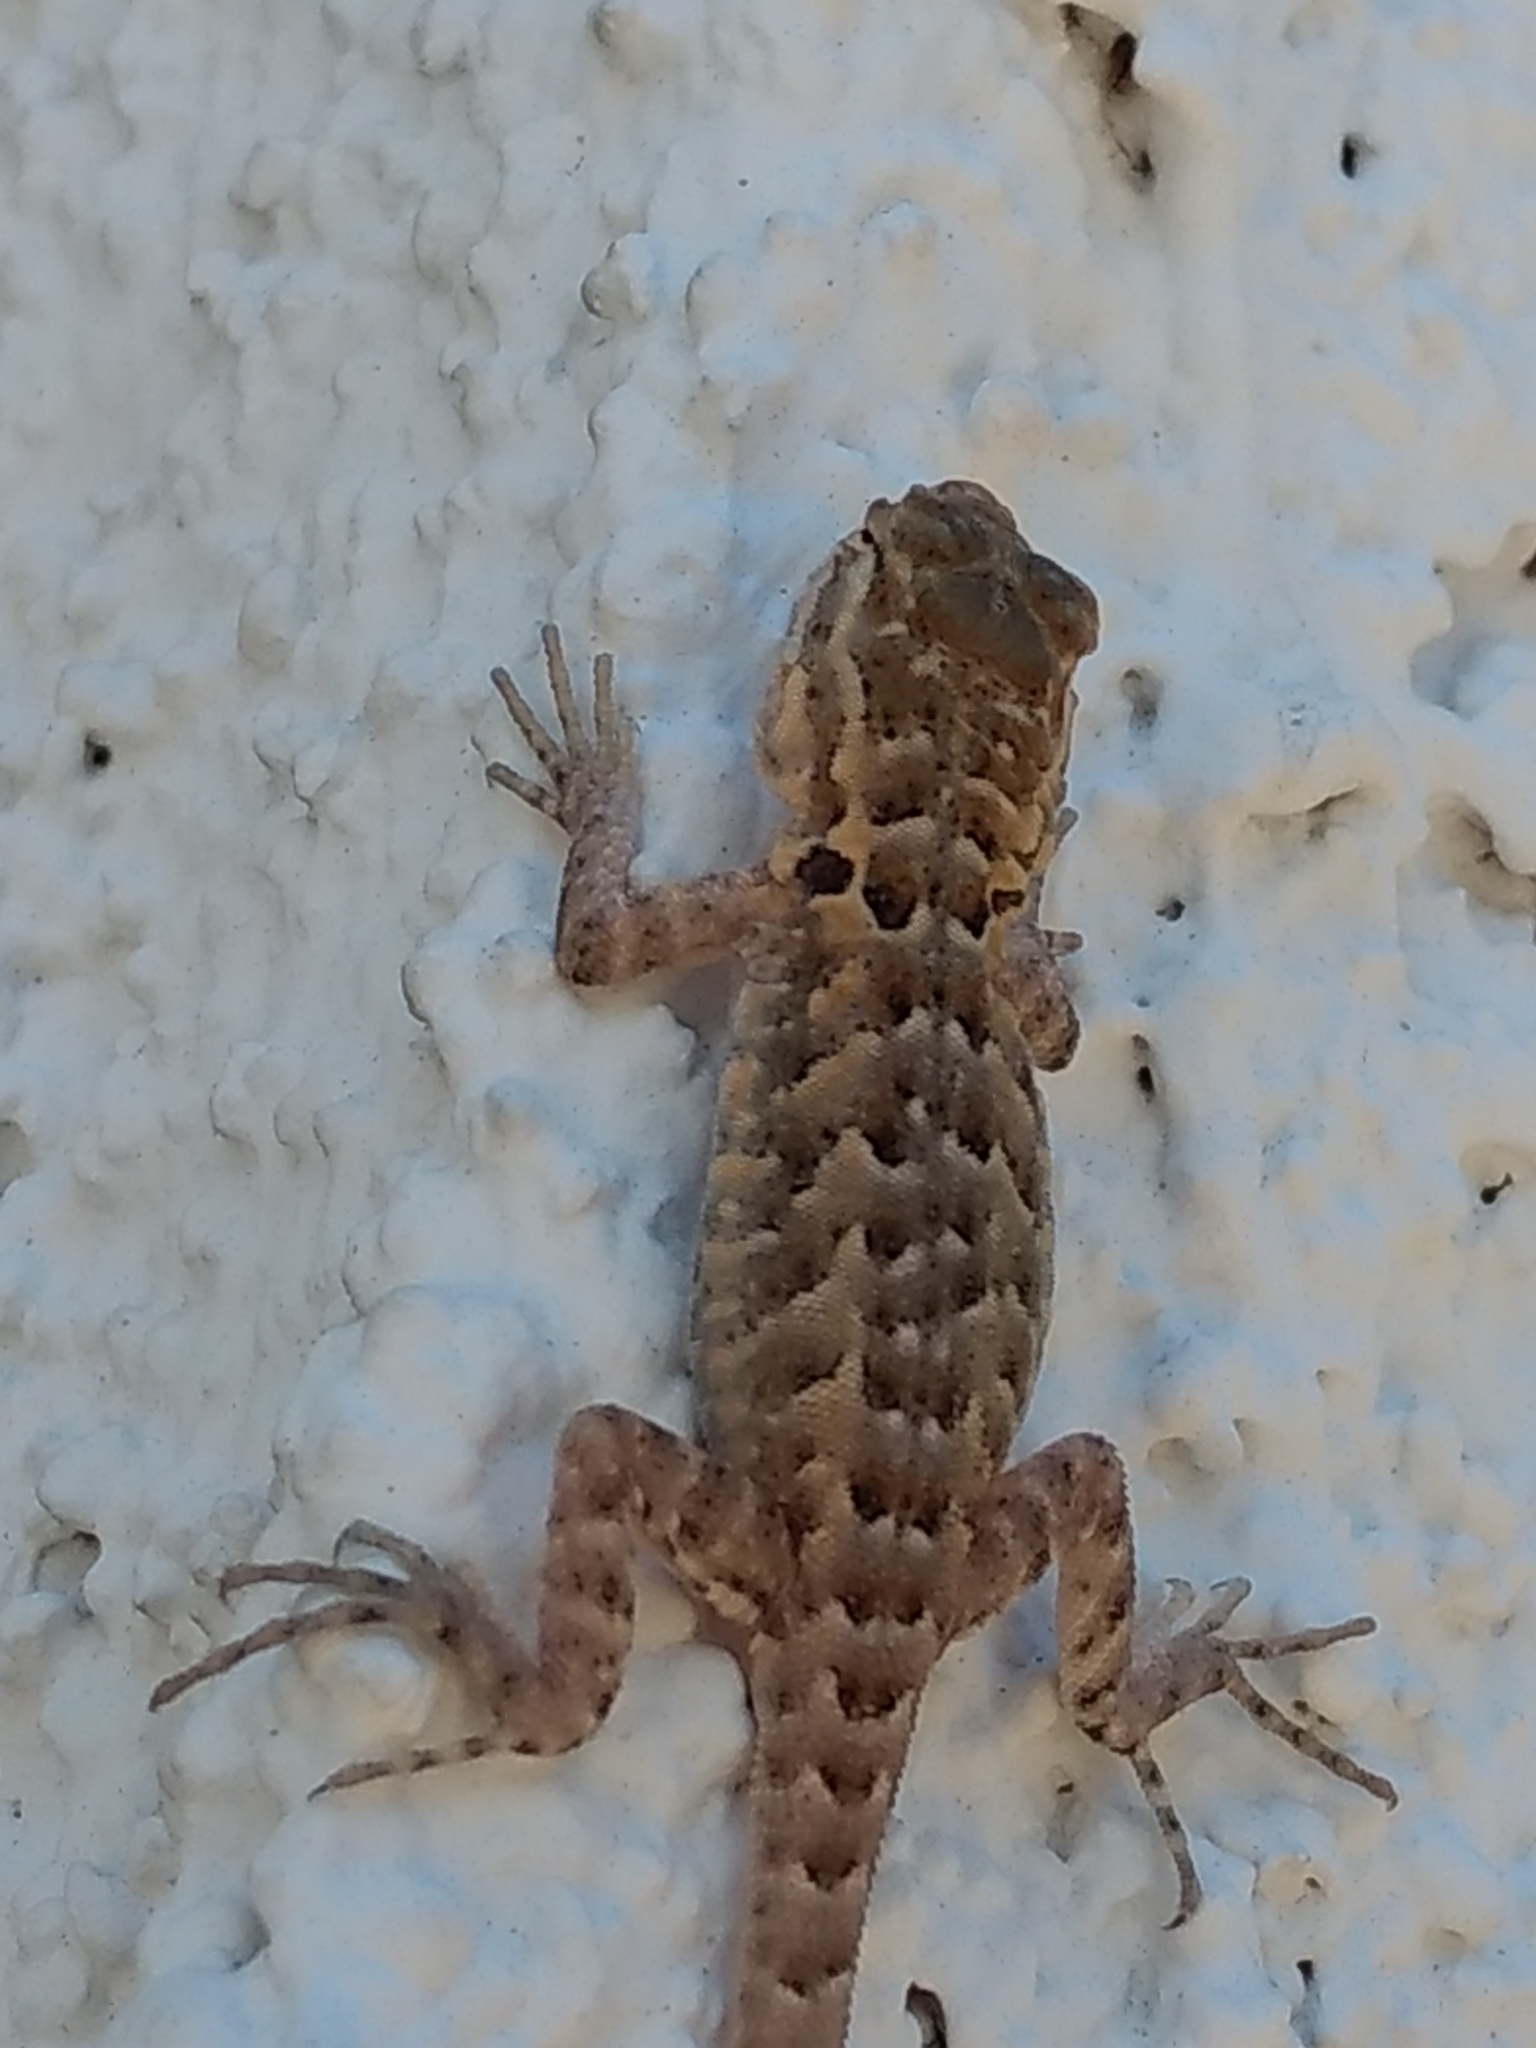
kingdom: Animalia
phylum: Chordata
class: Squamata
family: Phrynosomatidae
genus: Uta
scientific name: Uta stansburiana
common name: Side-blotched lizard
